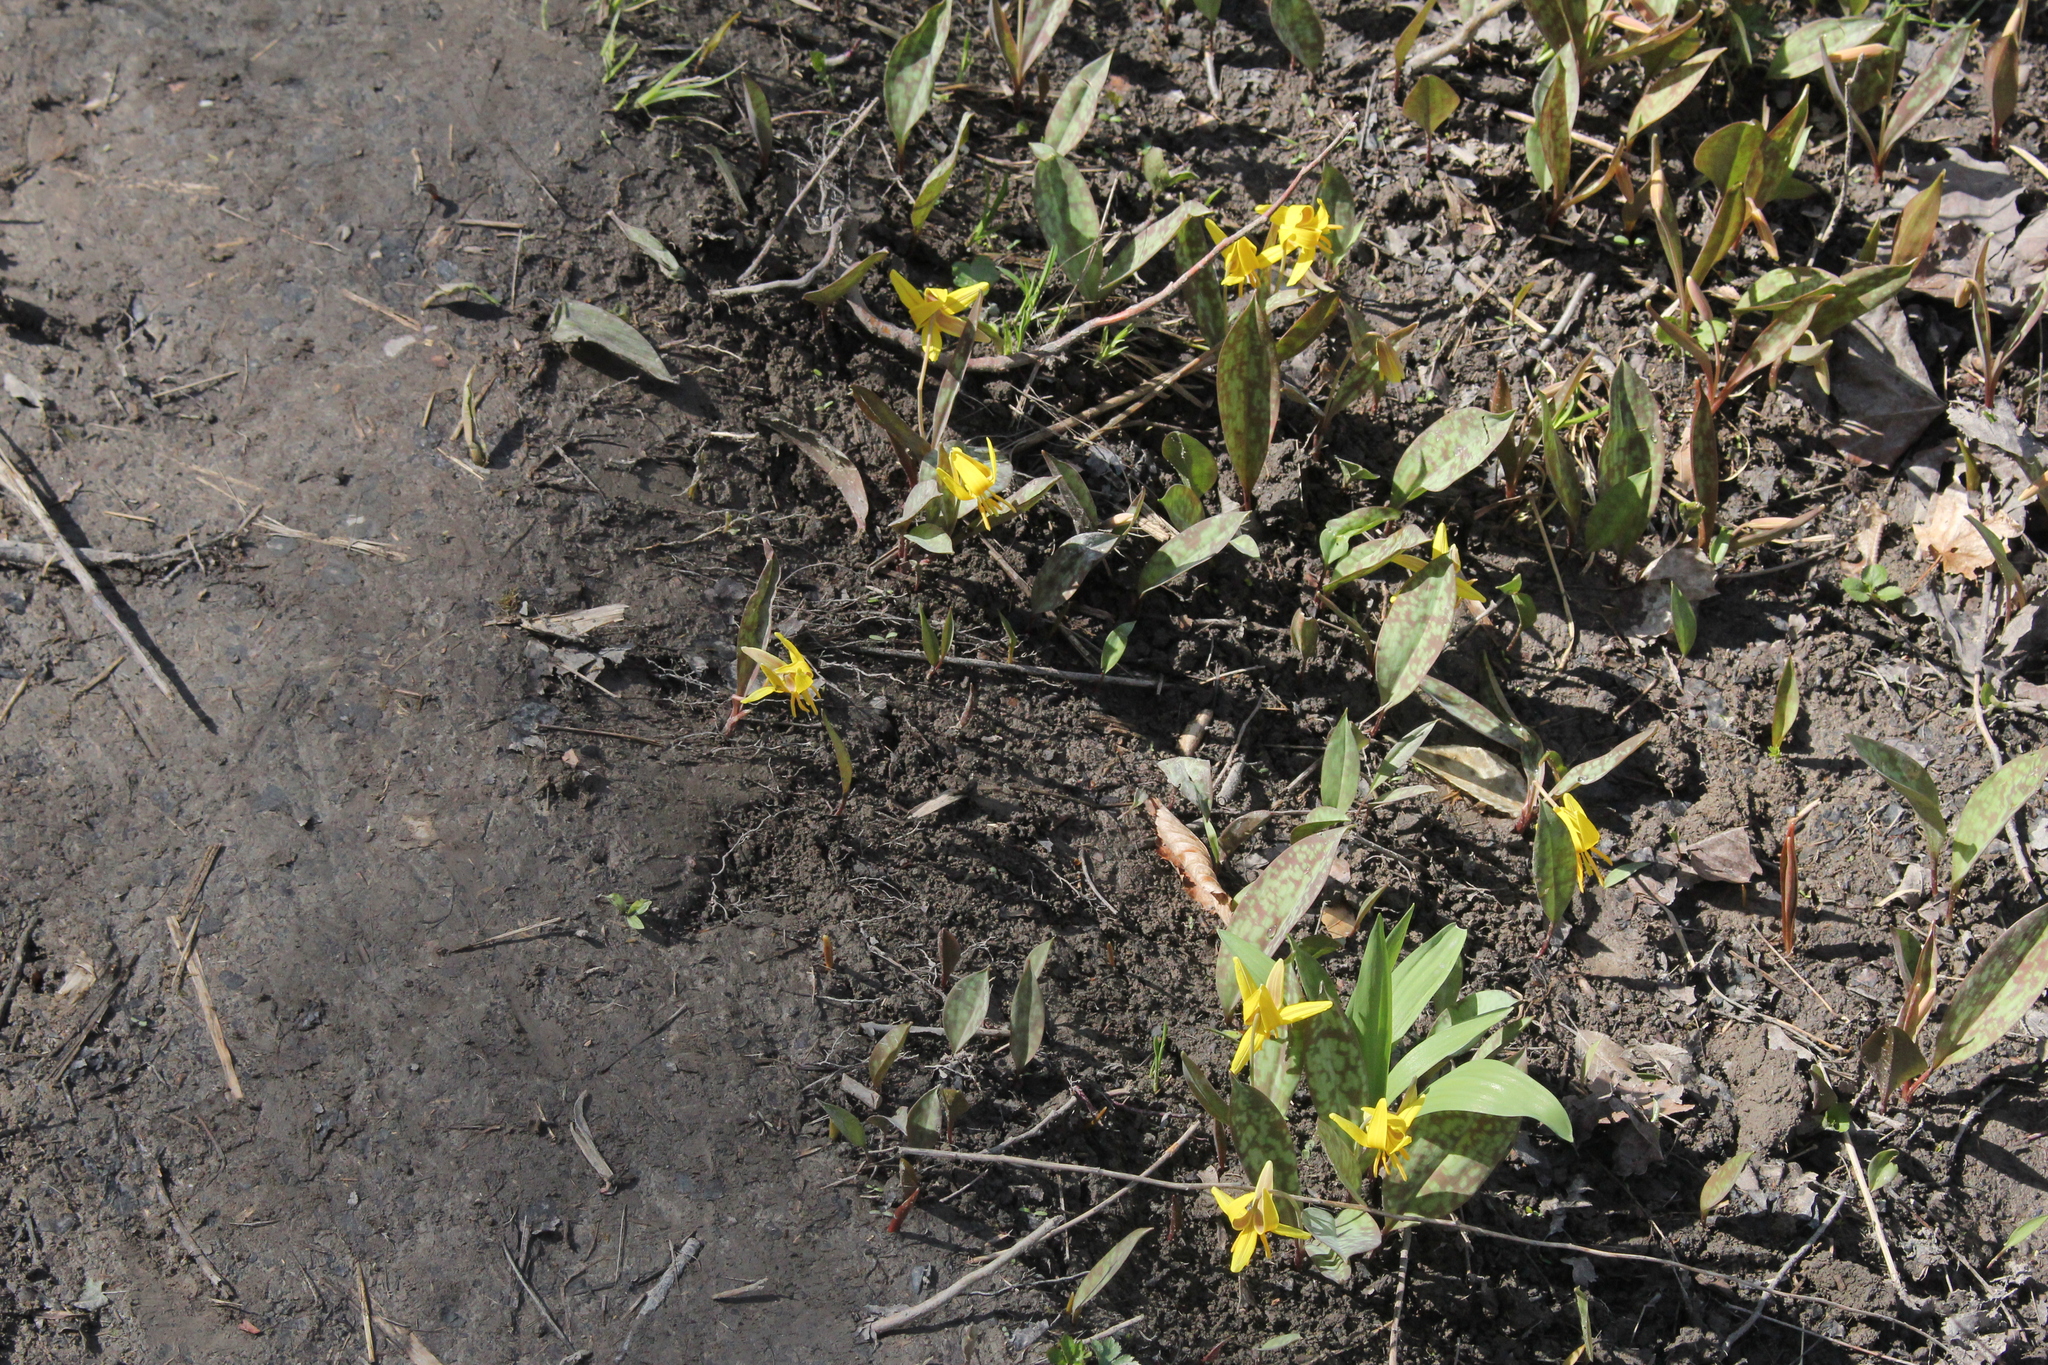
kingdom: Plantae
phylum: Tracheophyta
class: Liliopsida
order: Liliales
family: Liliaceae
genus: Erythronium
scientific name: Erythronium americanum
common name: Yellow adder's-tongue
